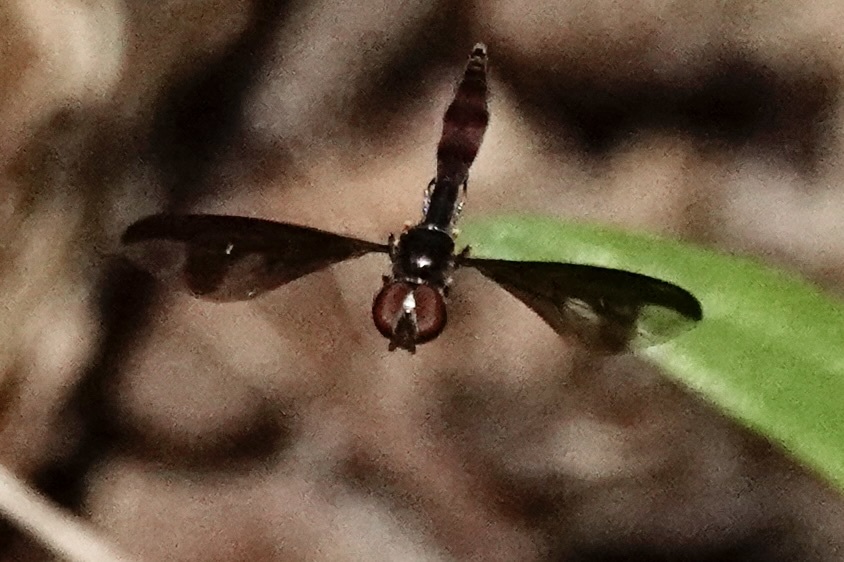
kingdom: Animalia
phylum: Arthropoda
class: Insecta
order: Diptera
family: Syrphidae
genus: Ocyptamus
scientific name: Ocyptamus fuscipennis
